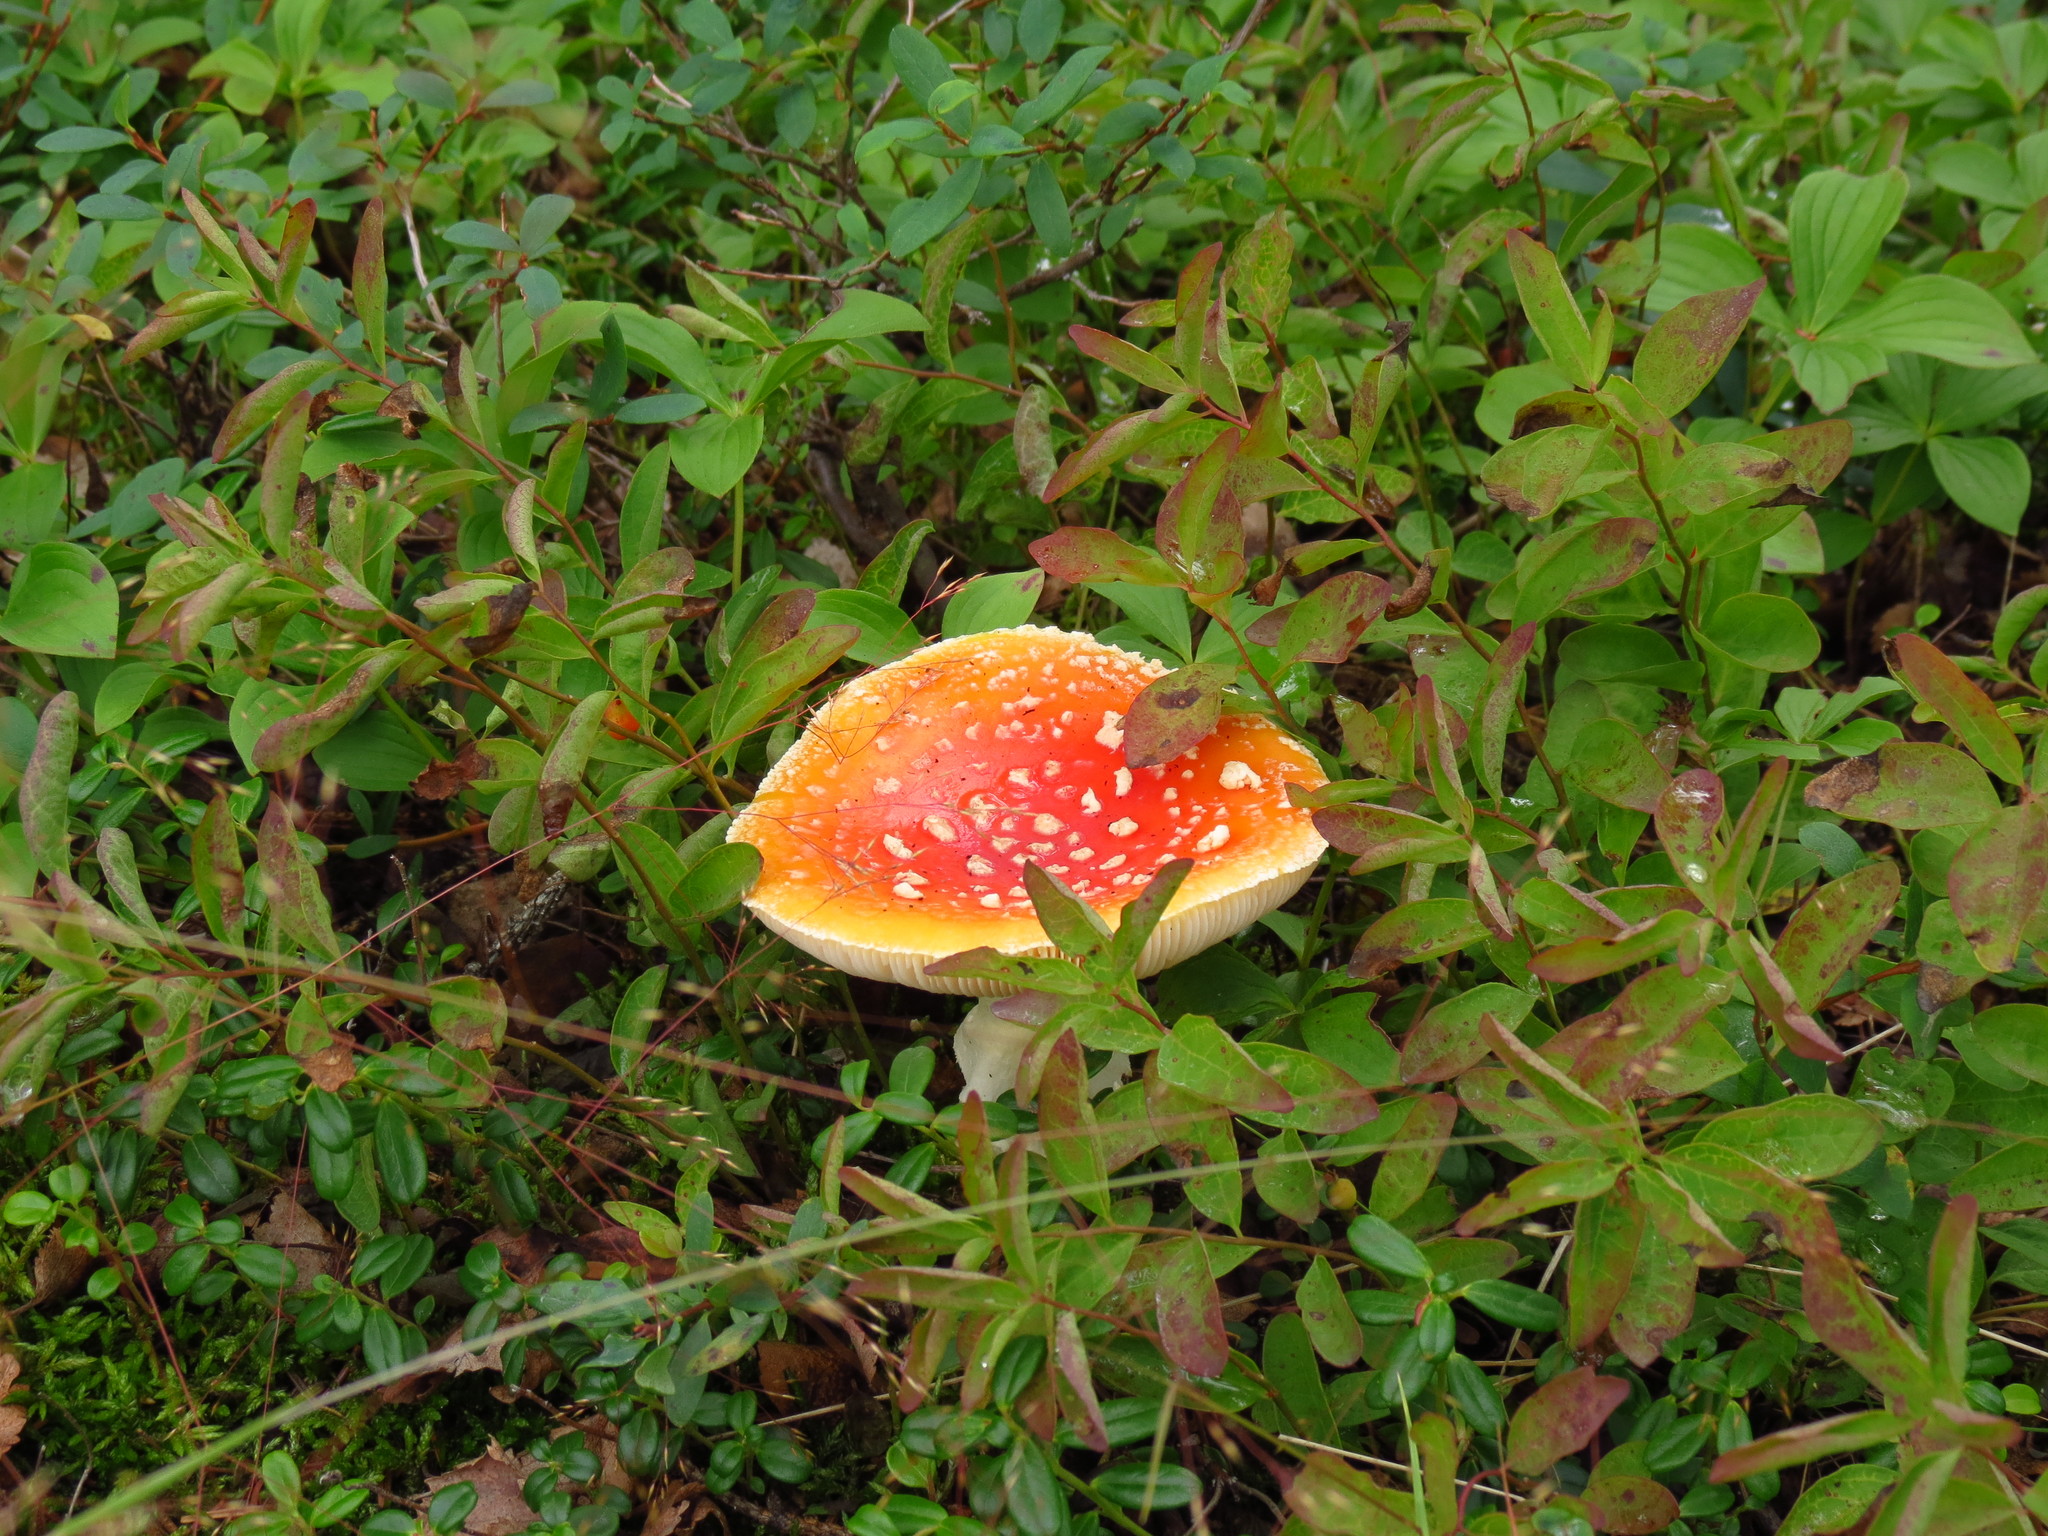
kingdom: Fungi
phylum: Basidiomycota
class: Agaricomycetes
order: Agaricales
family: Amanitaceae
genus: Amanita
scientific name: Amanita muscaria
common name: Fly agaric
